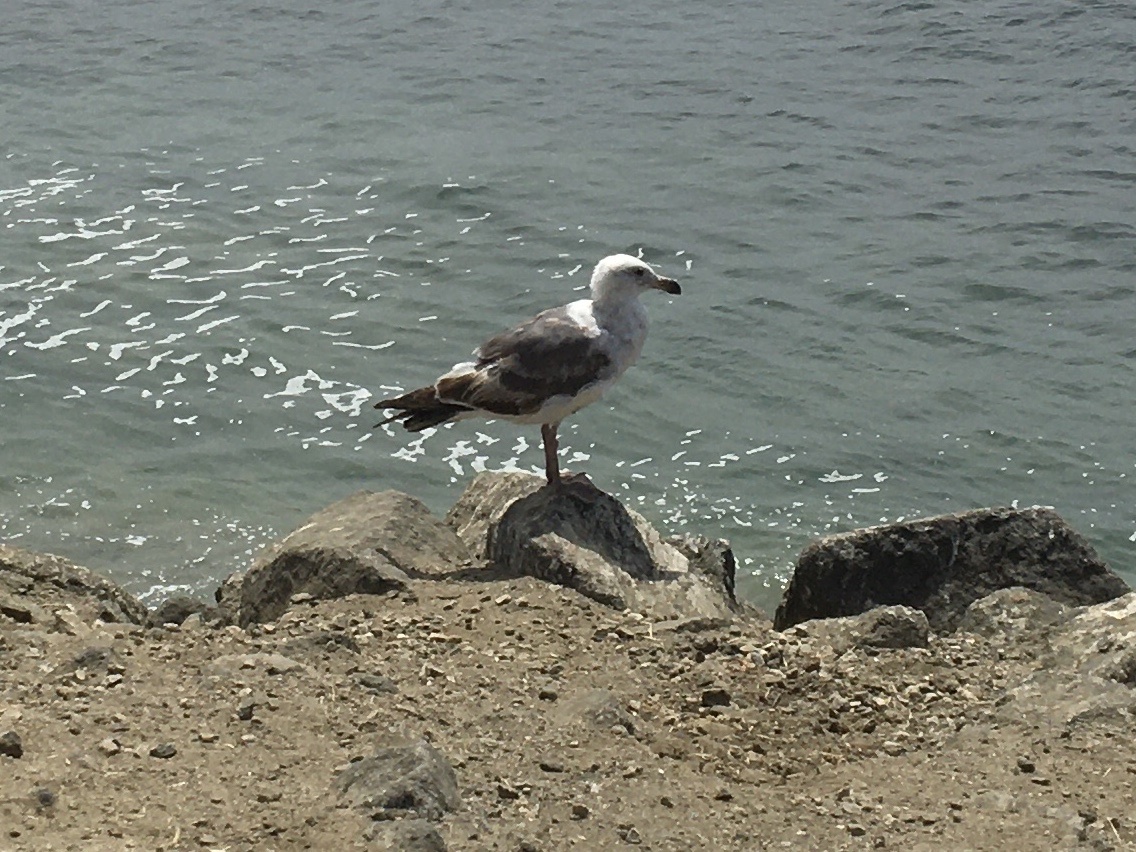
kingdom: Animalia
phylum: Chordata
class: Aves
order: Charadriiformes
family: Laridae
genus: Larus
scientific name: Larus occidentalis
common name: Western gull
